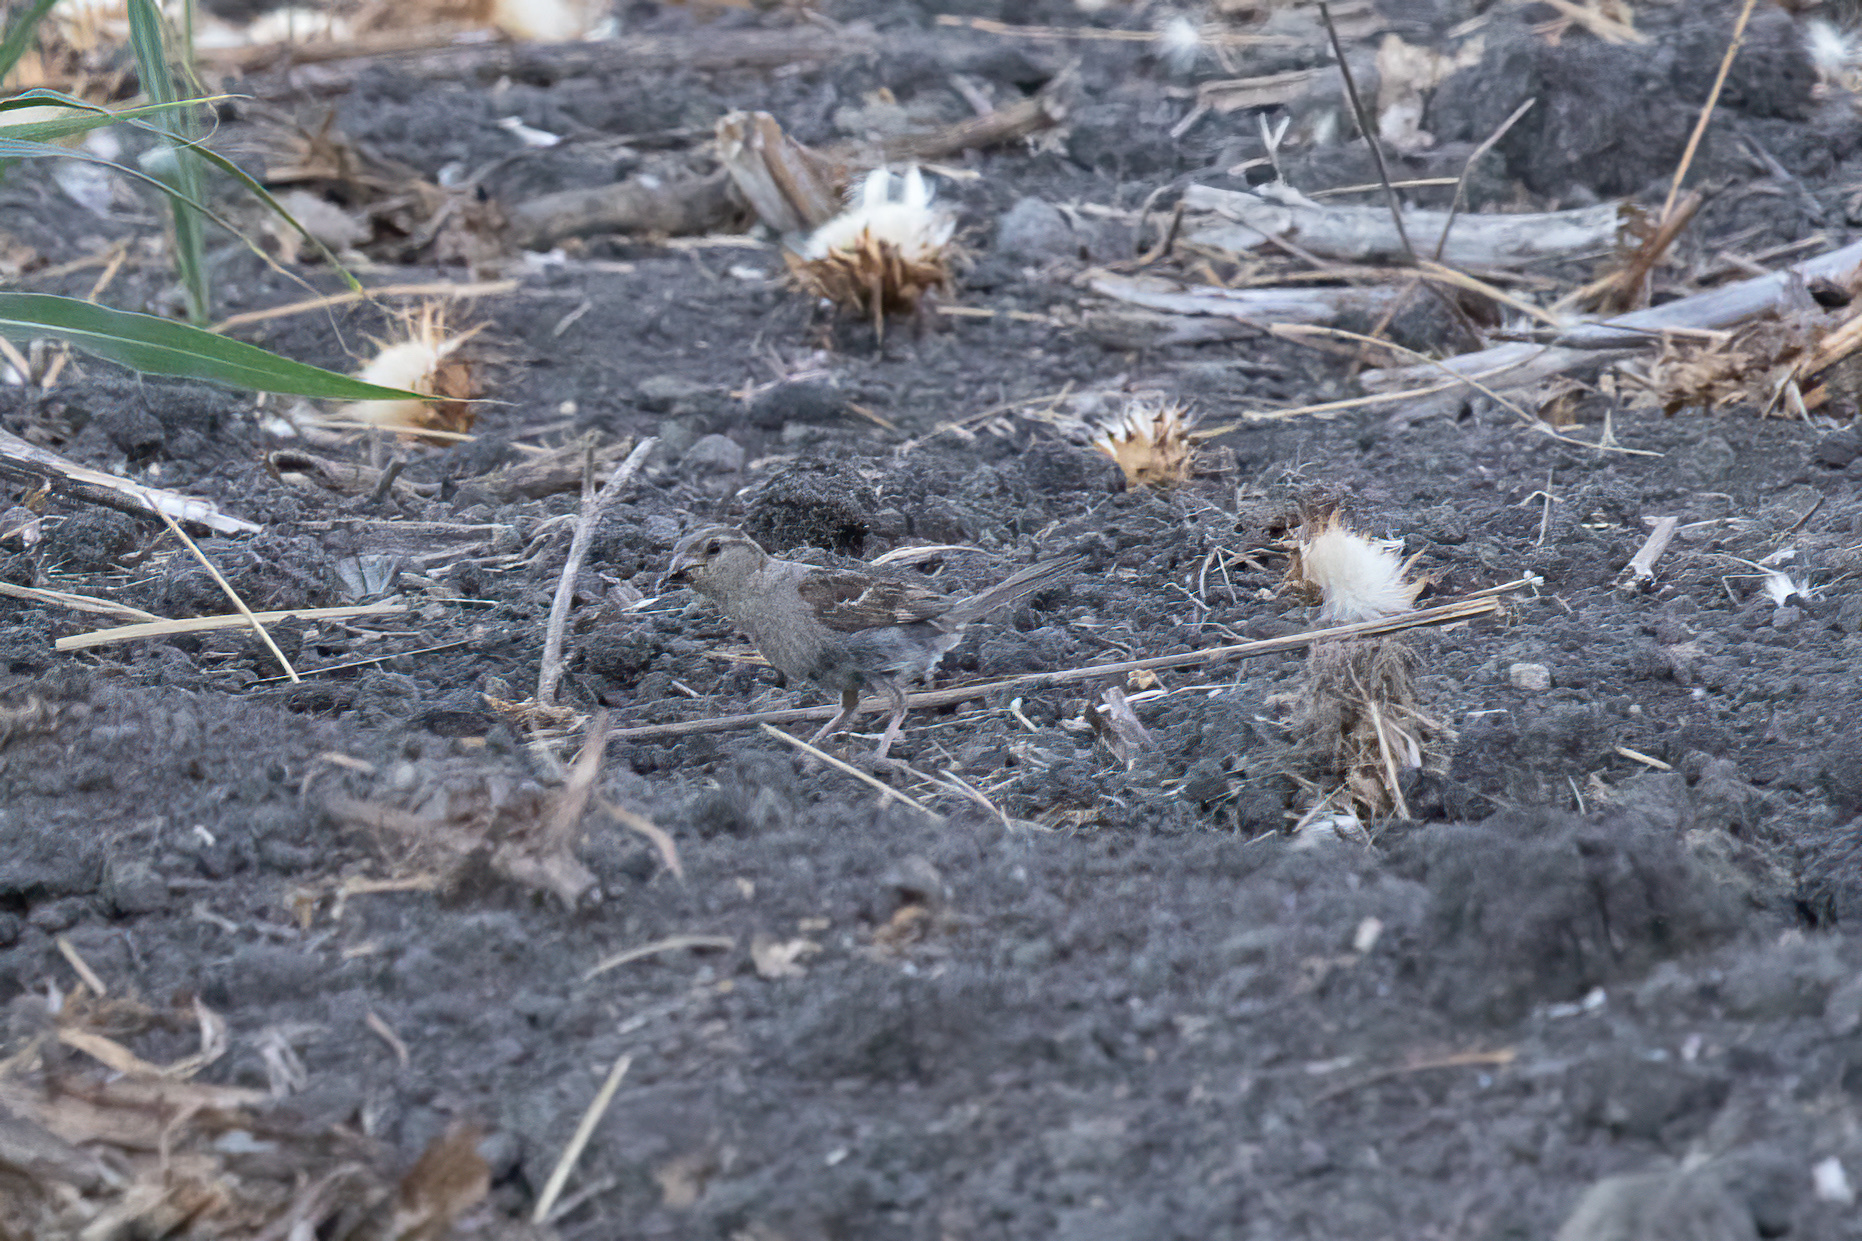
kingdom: Animalia
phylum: Chordata
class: Aves
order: Passeriformes
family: Passeridae
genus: Passer
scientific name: Passer domesticus
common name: House sparrow
